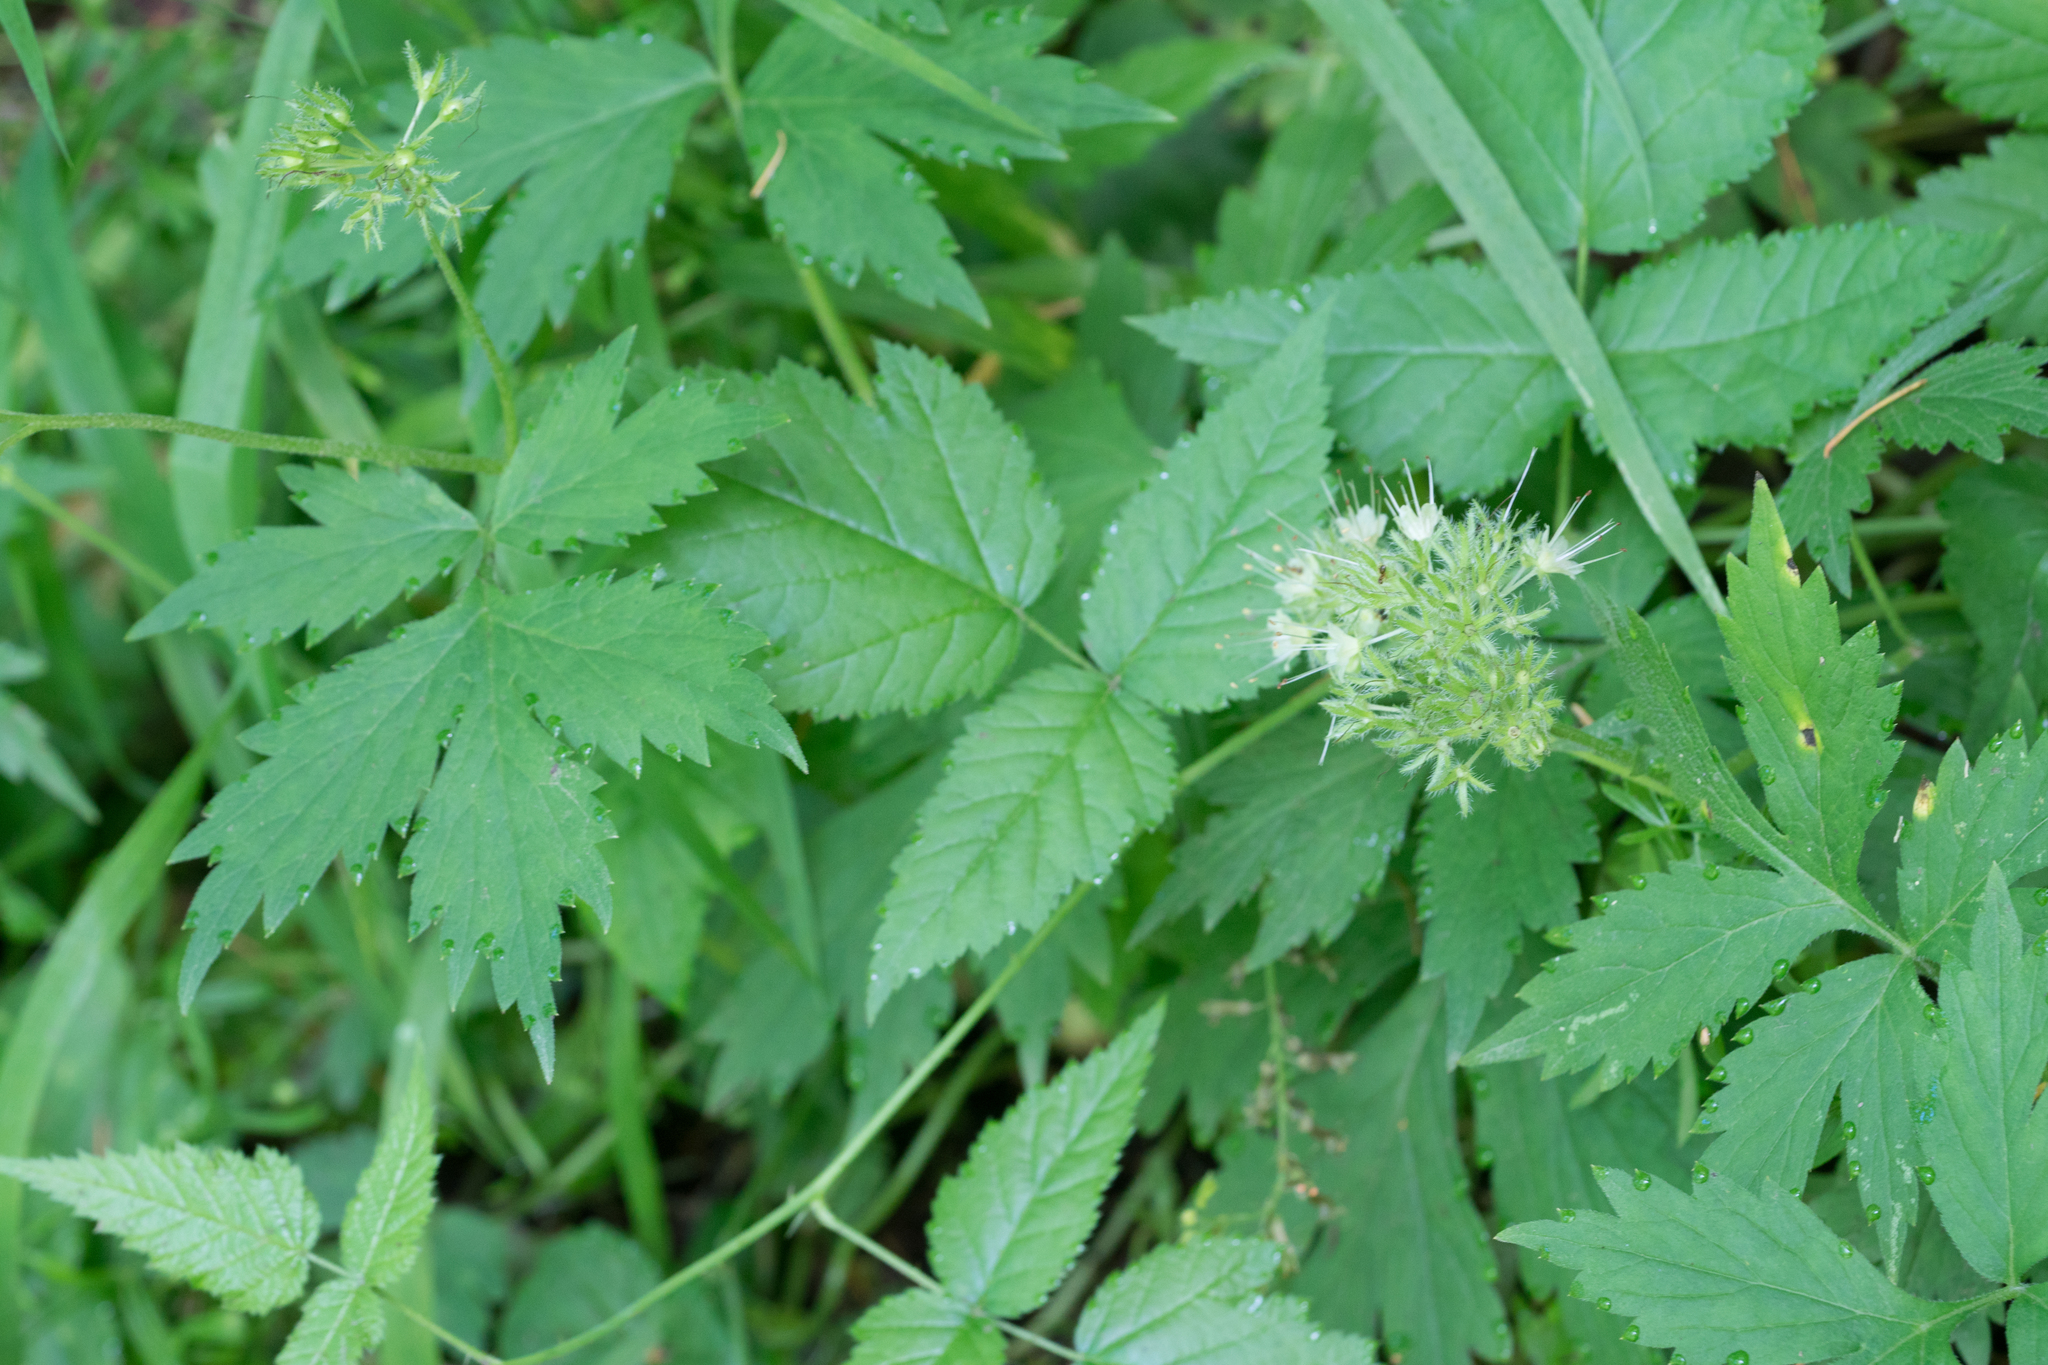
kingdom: Plantae
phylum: Tracheophyta
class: Magnoliopsida
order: Boraginales
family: Hydrophyllaceae
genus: Hydrophyllum
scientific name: Hydrophyllum tenuipes
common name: Pacific waterleaf
